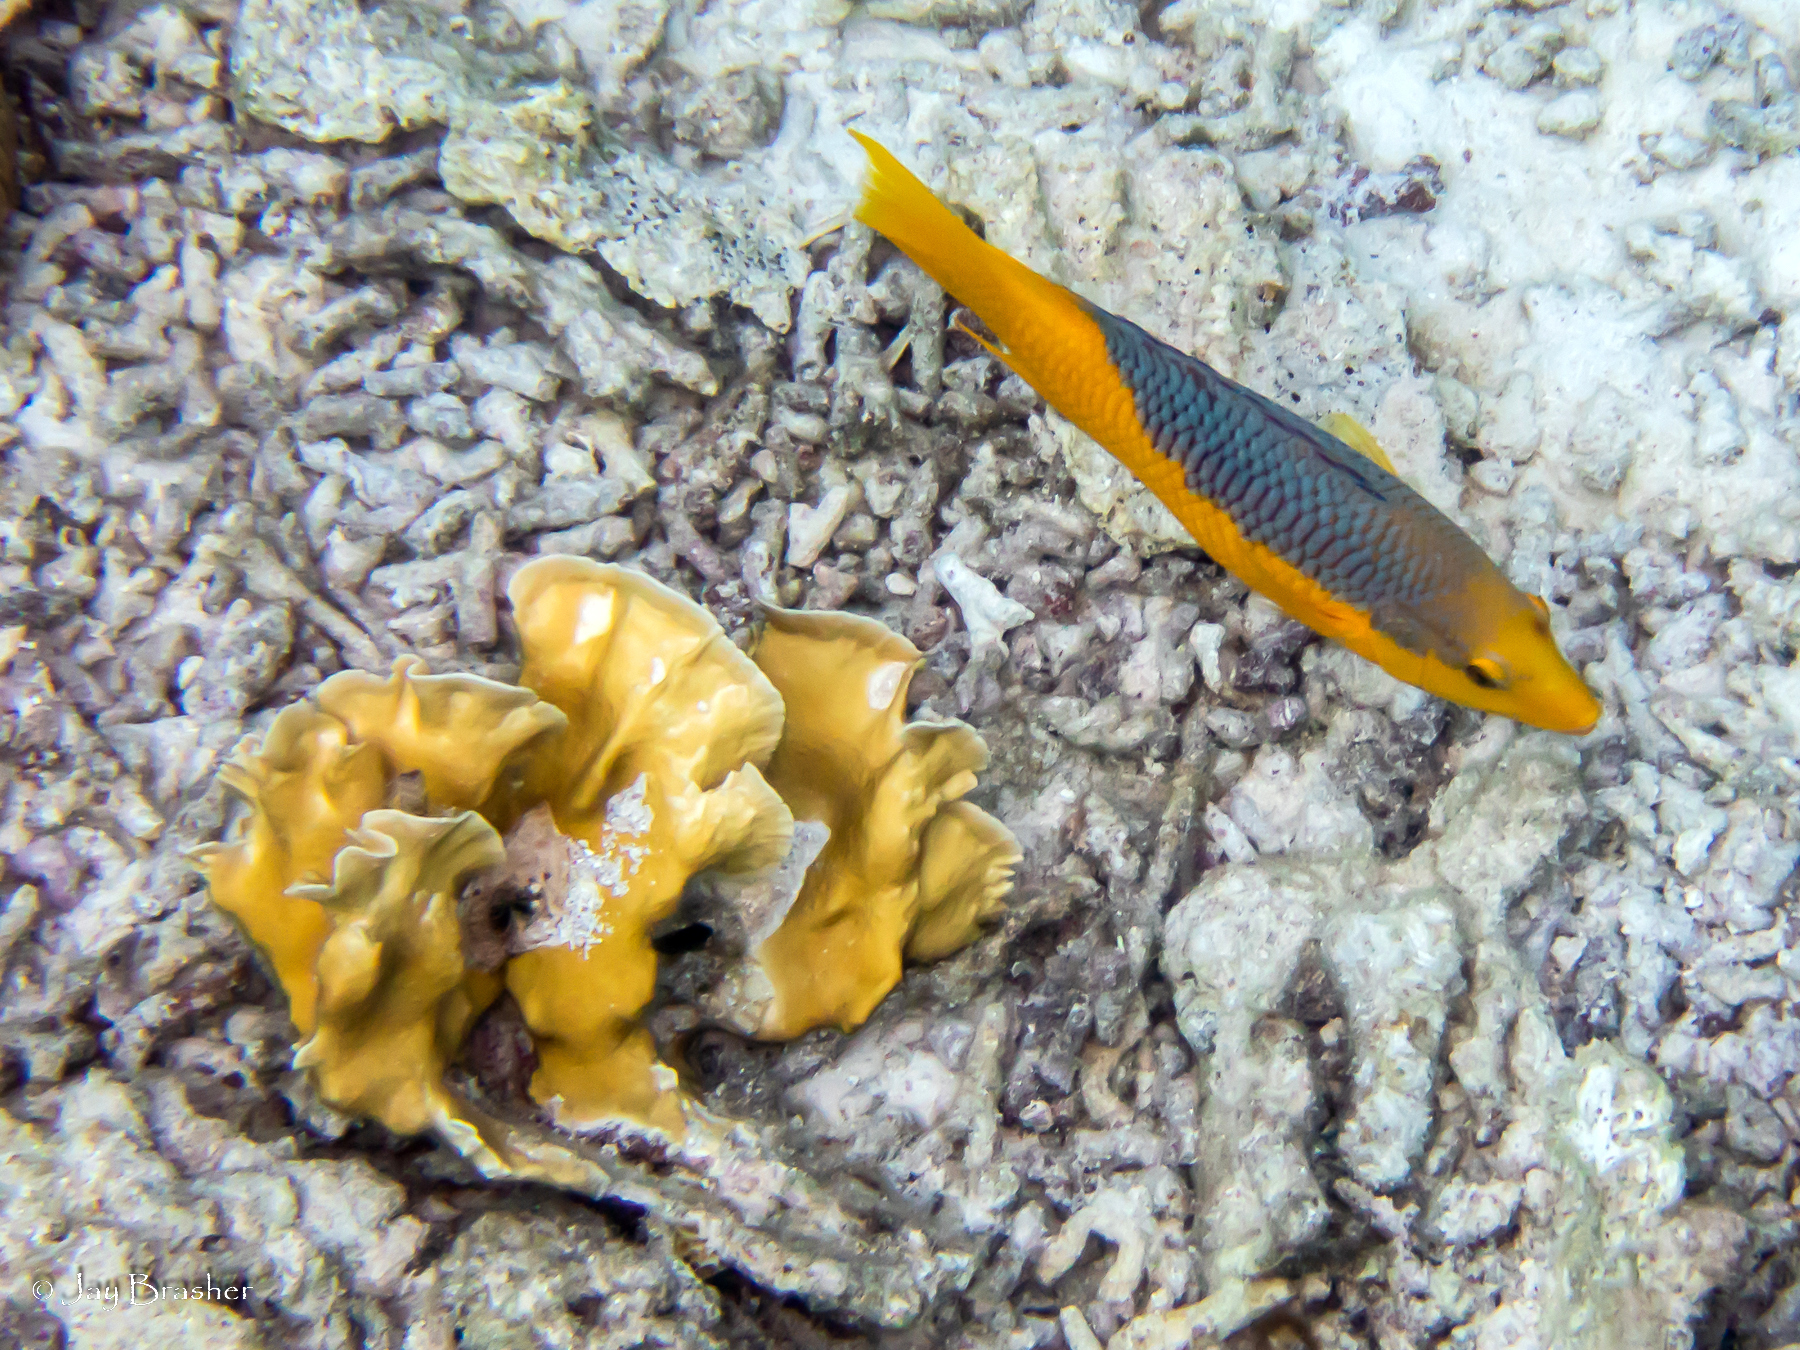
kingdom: Animalia
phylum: Chordata
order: Perciformes
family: Labridae
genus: Bodianus
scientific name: Bodianus rufus
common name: Spanish hogfish
